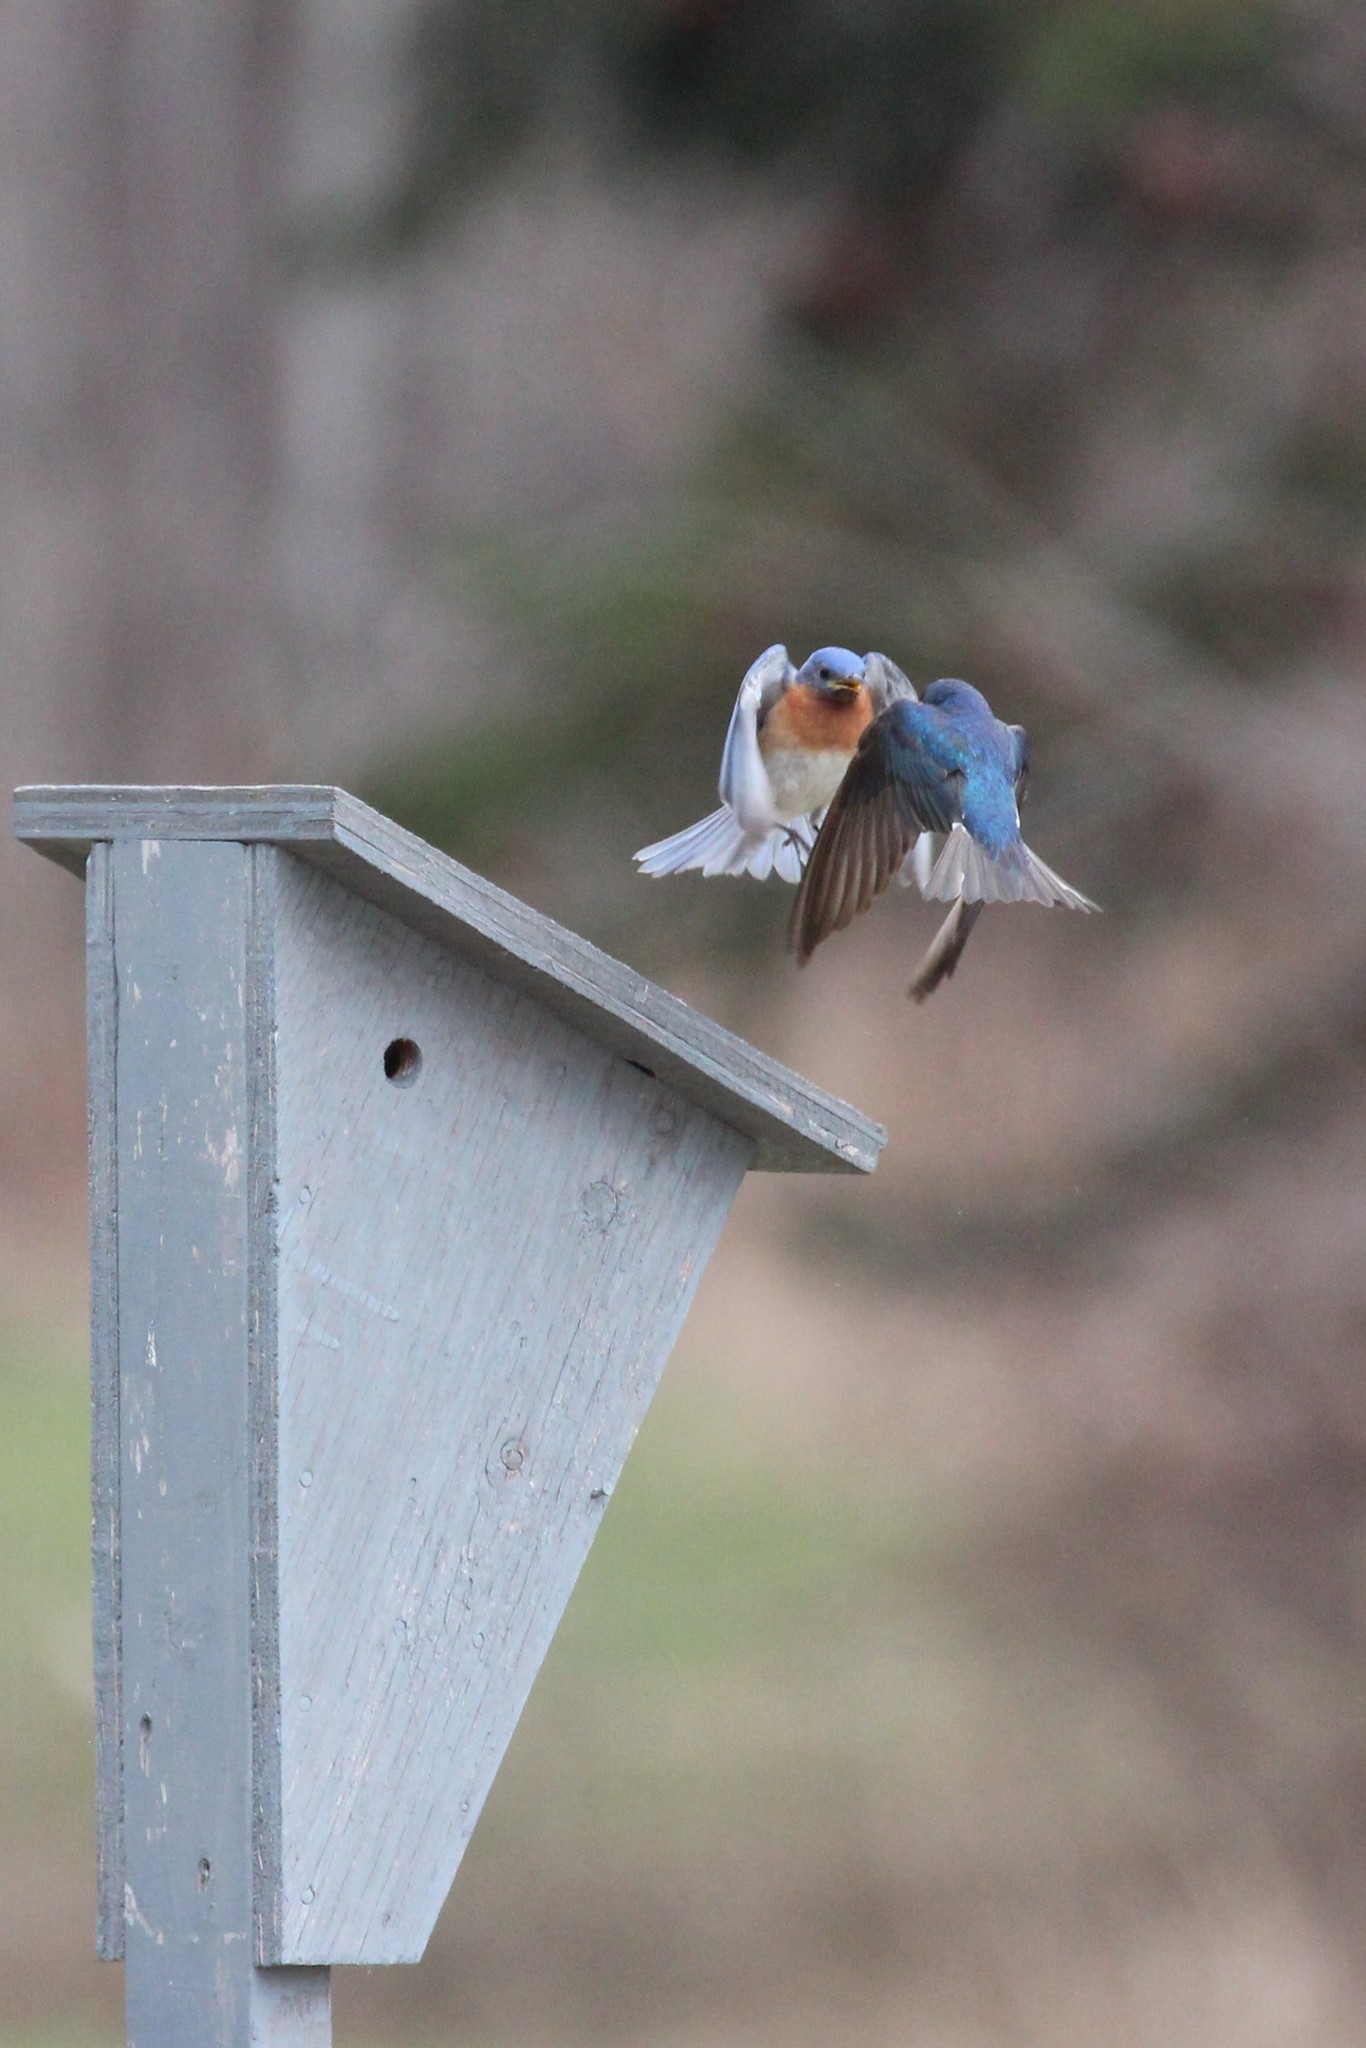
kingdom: Animalia
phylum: Chordata
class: Aves
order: Passeriformes
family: Turdidae
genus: Sialia
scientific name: Sialia sialis
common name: Eastern bluebird
